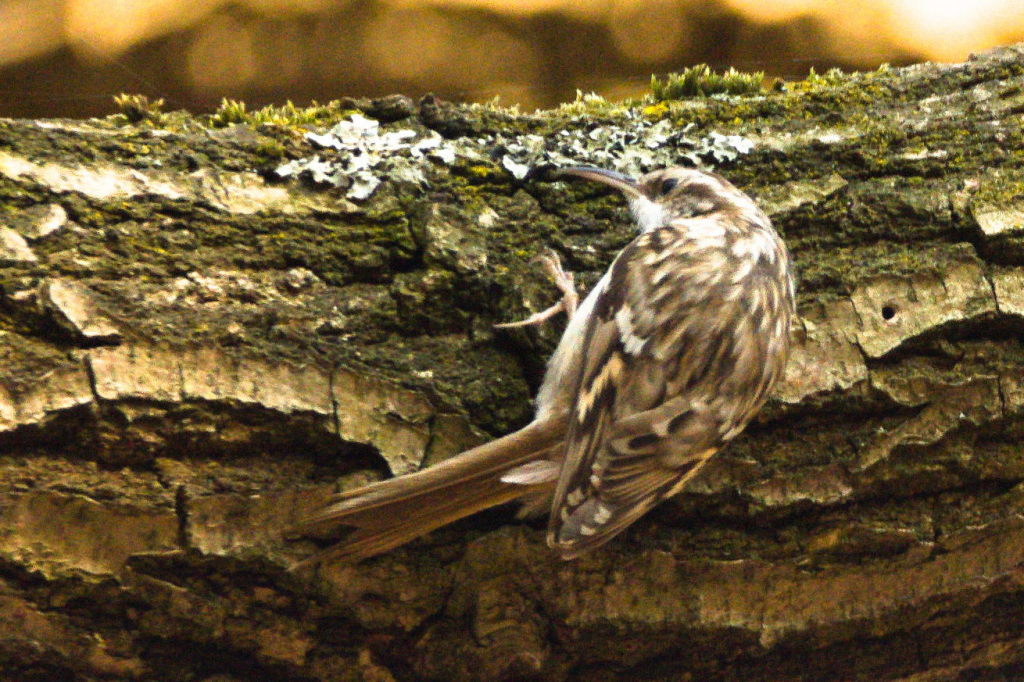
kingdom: Animalia
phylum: Chordata
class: Aves
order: Passeriformes
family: Certhiidae
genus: Certhia
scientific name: Certhia brachydactyla
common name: Short-toed treecreeper
